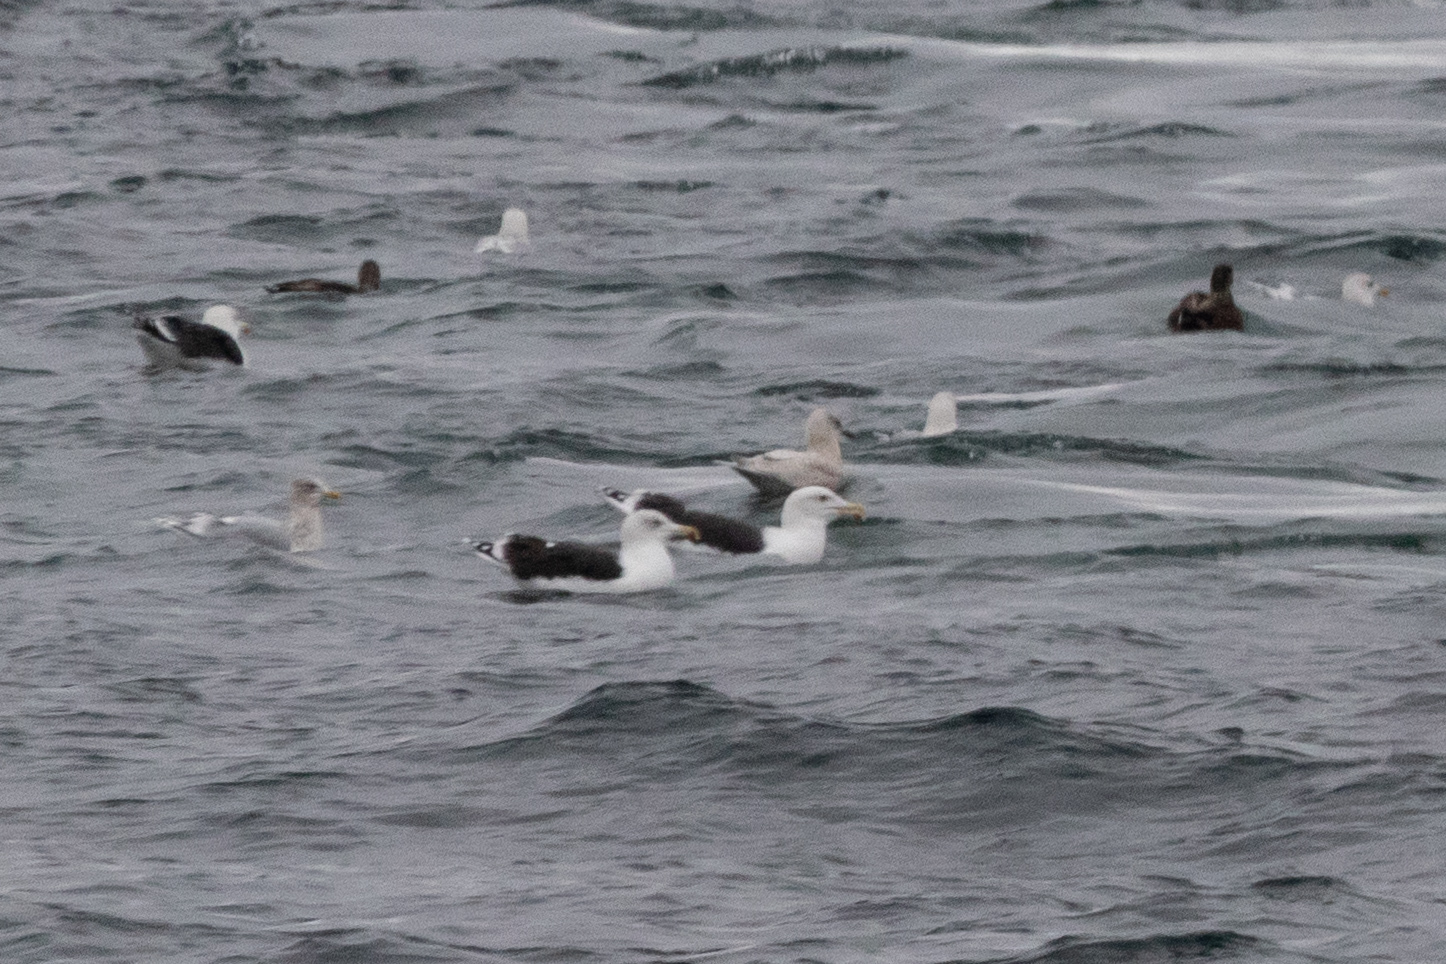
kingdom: Animalia
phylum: Chordata
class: Aves
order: Charadriiformes
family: Laridae
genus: Larus
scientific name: Larus marinus
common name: Great black-backed gull
